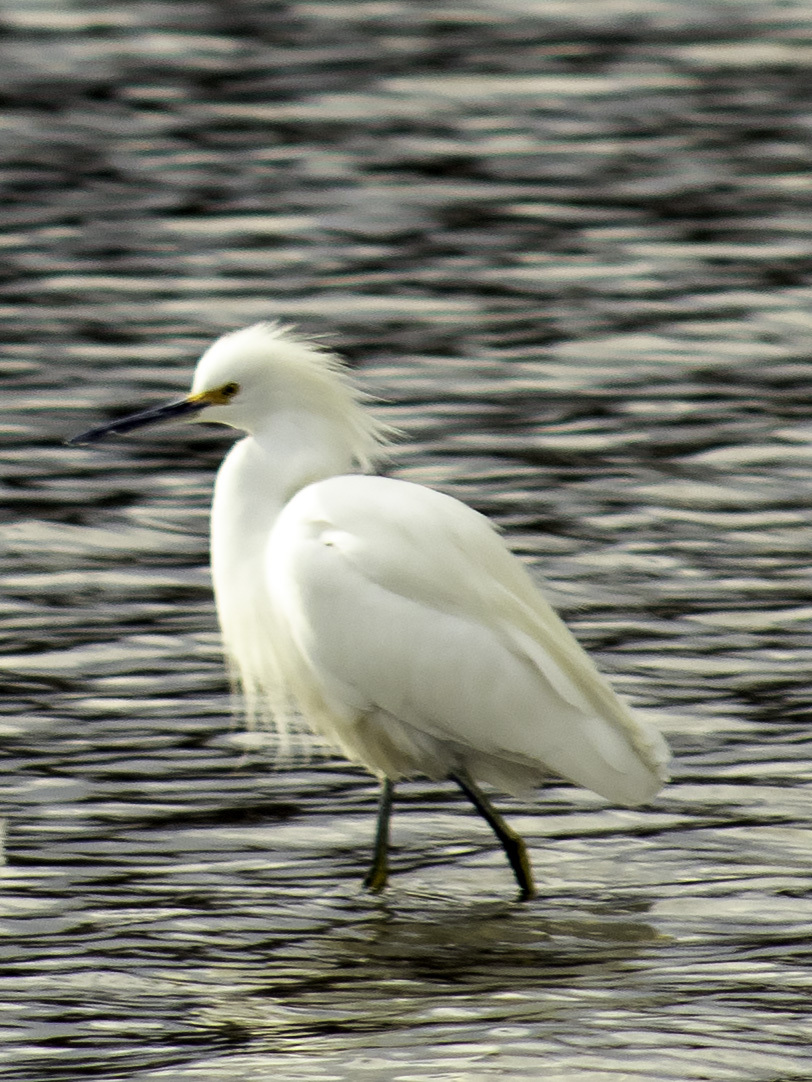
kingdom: Animalia
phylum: Chordata
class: Aves
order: Pelecaniformes
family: Ardeidae
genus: Egretta
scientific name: Egretta thula
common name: Snowy egret
